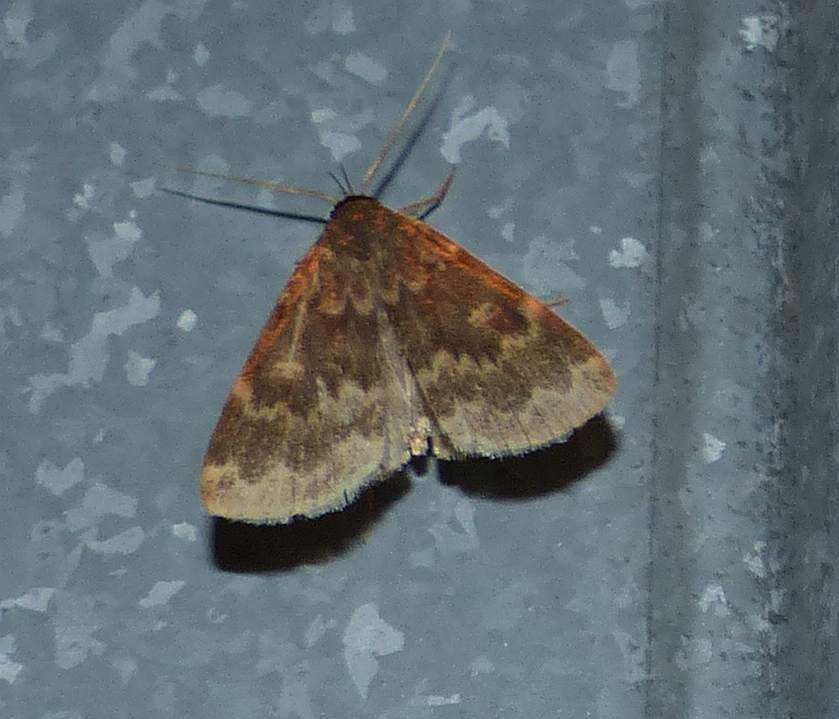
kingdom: Animalia
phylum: Arthropoda
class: Insecta
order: Lepidoptera
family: Erebidae
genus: Idia
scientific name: Idia lubricalis
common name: Twin-striped tabby
